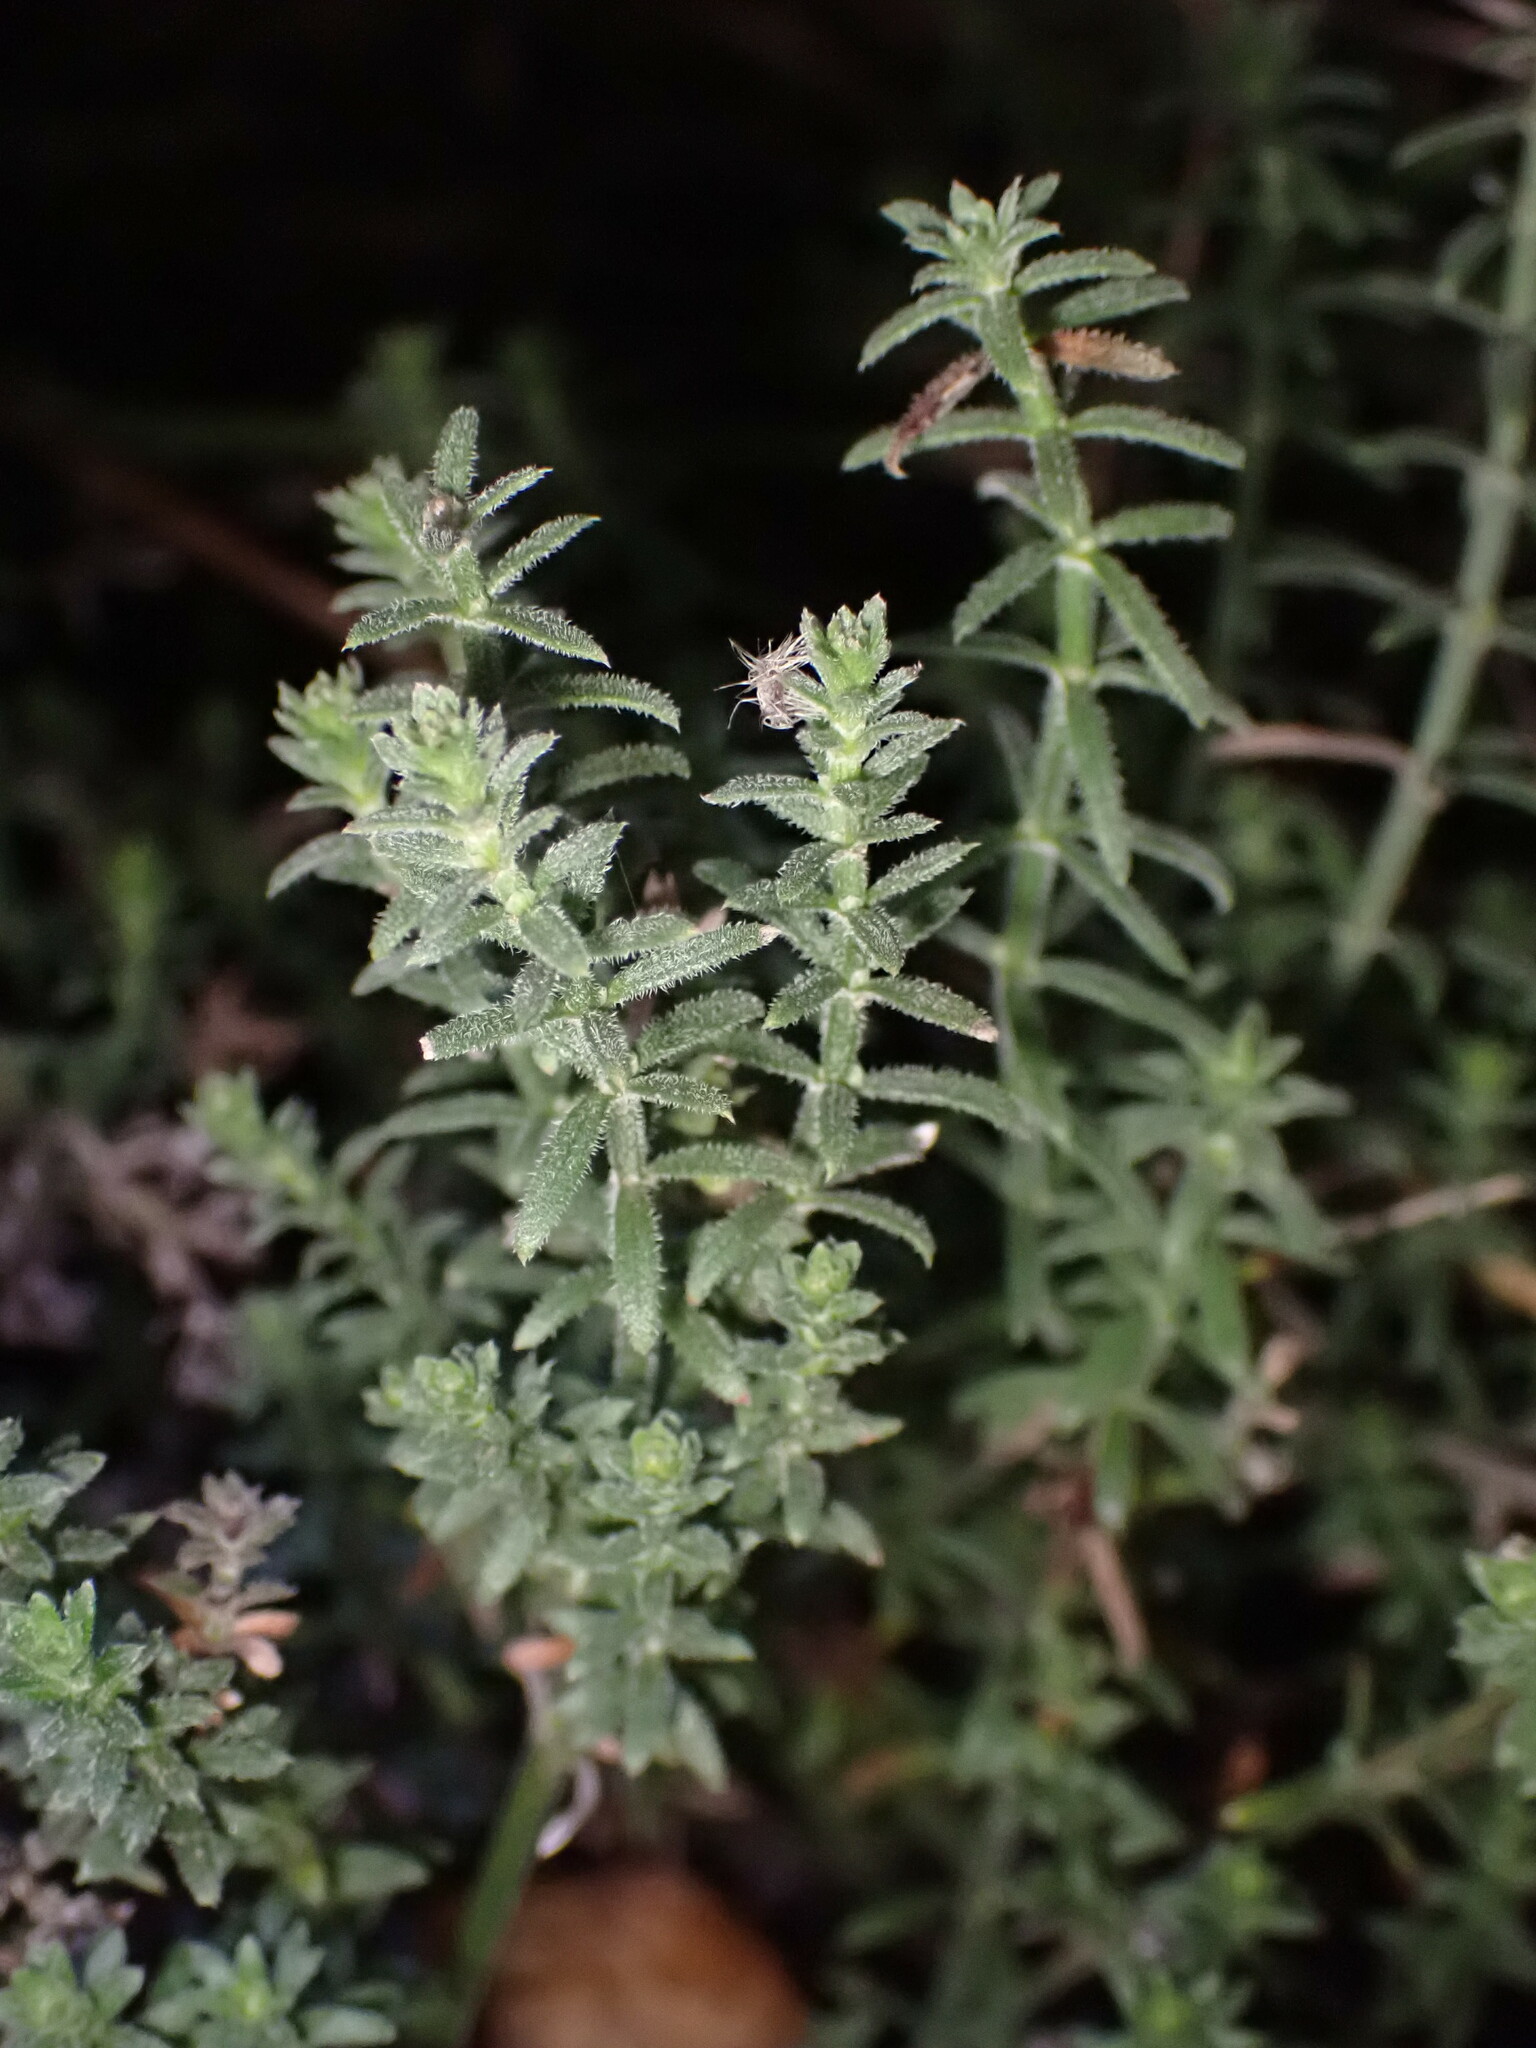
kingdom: Plantae
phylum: Tracheophyta
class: Magnoliopsida
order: Gentianales
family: Rubiaceae
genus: Galium
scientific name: Galium angustifolium
